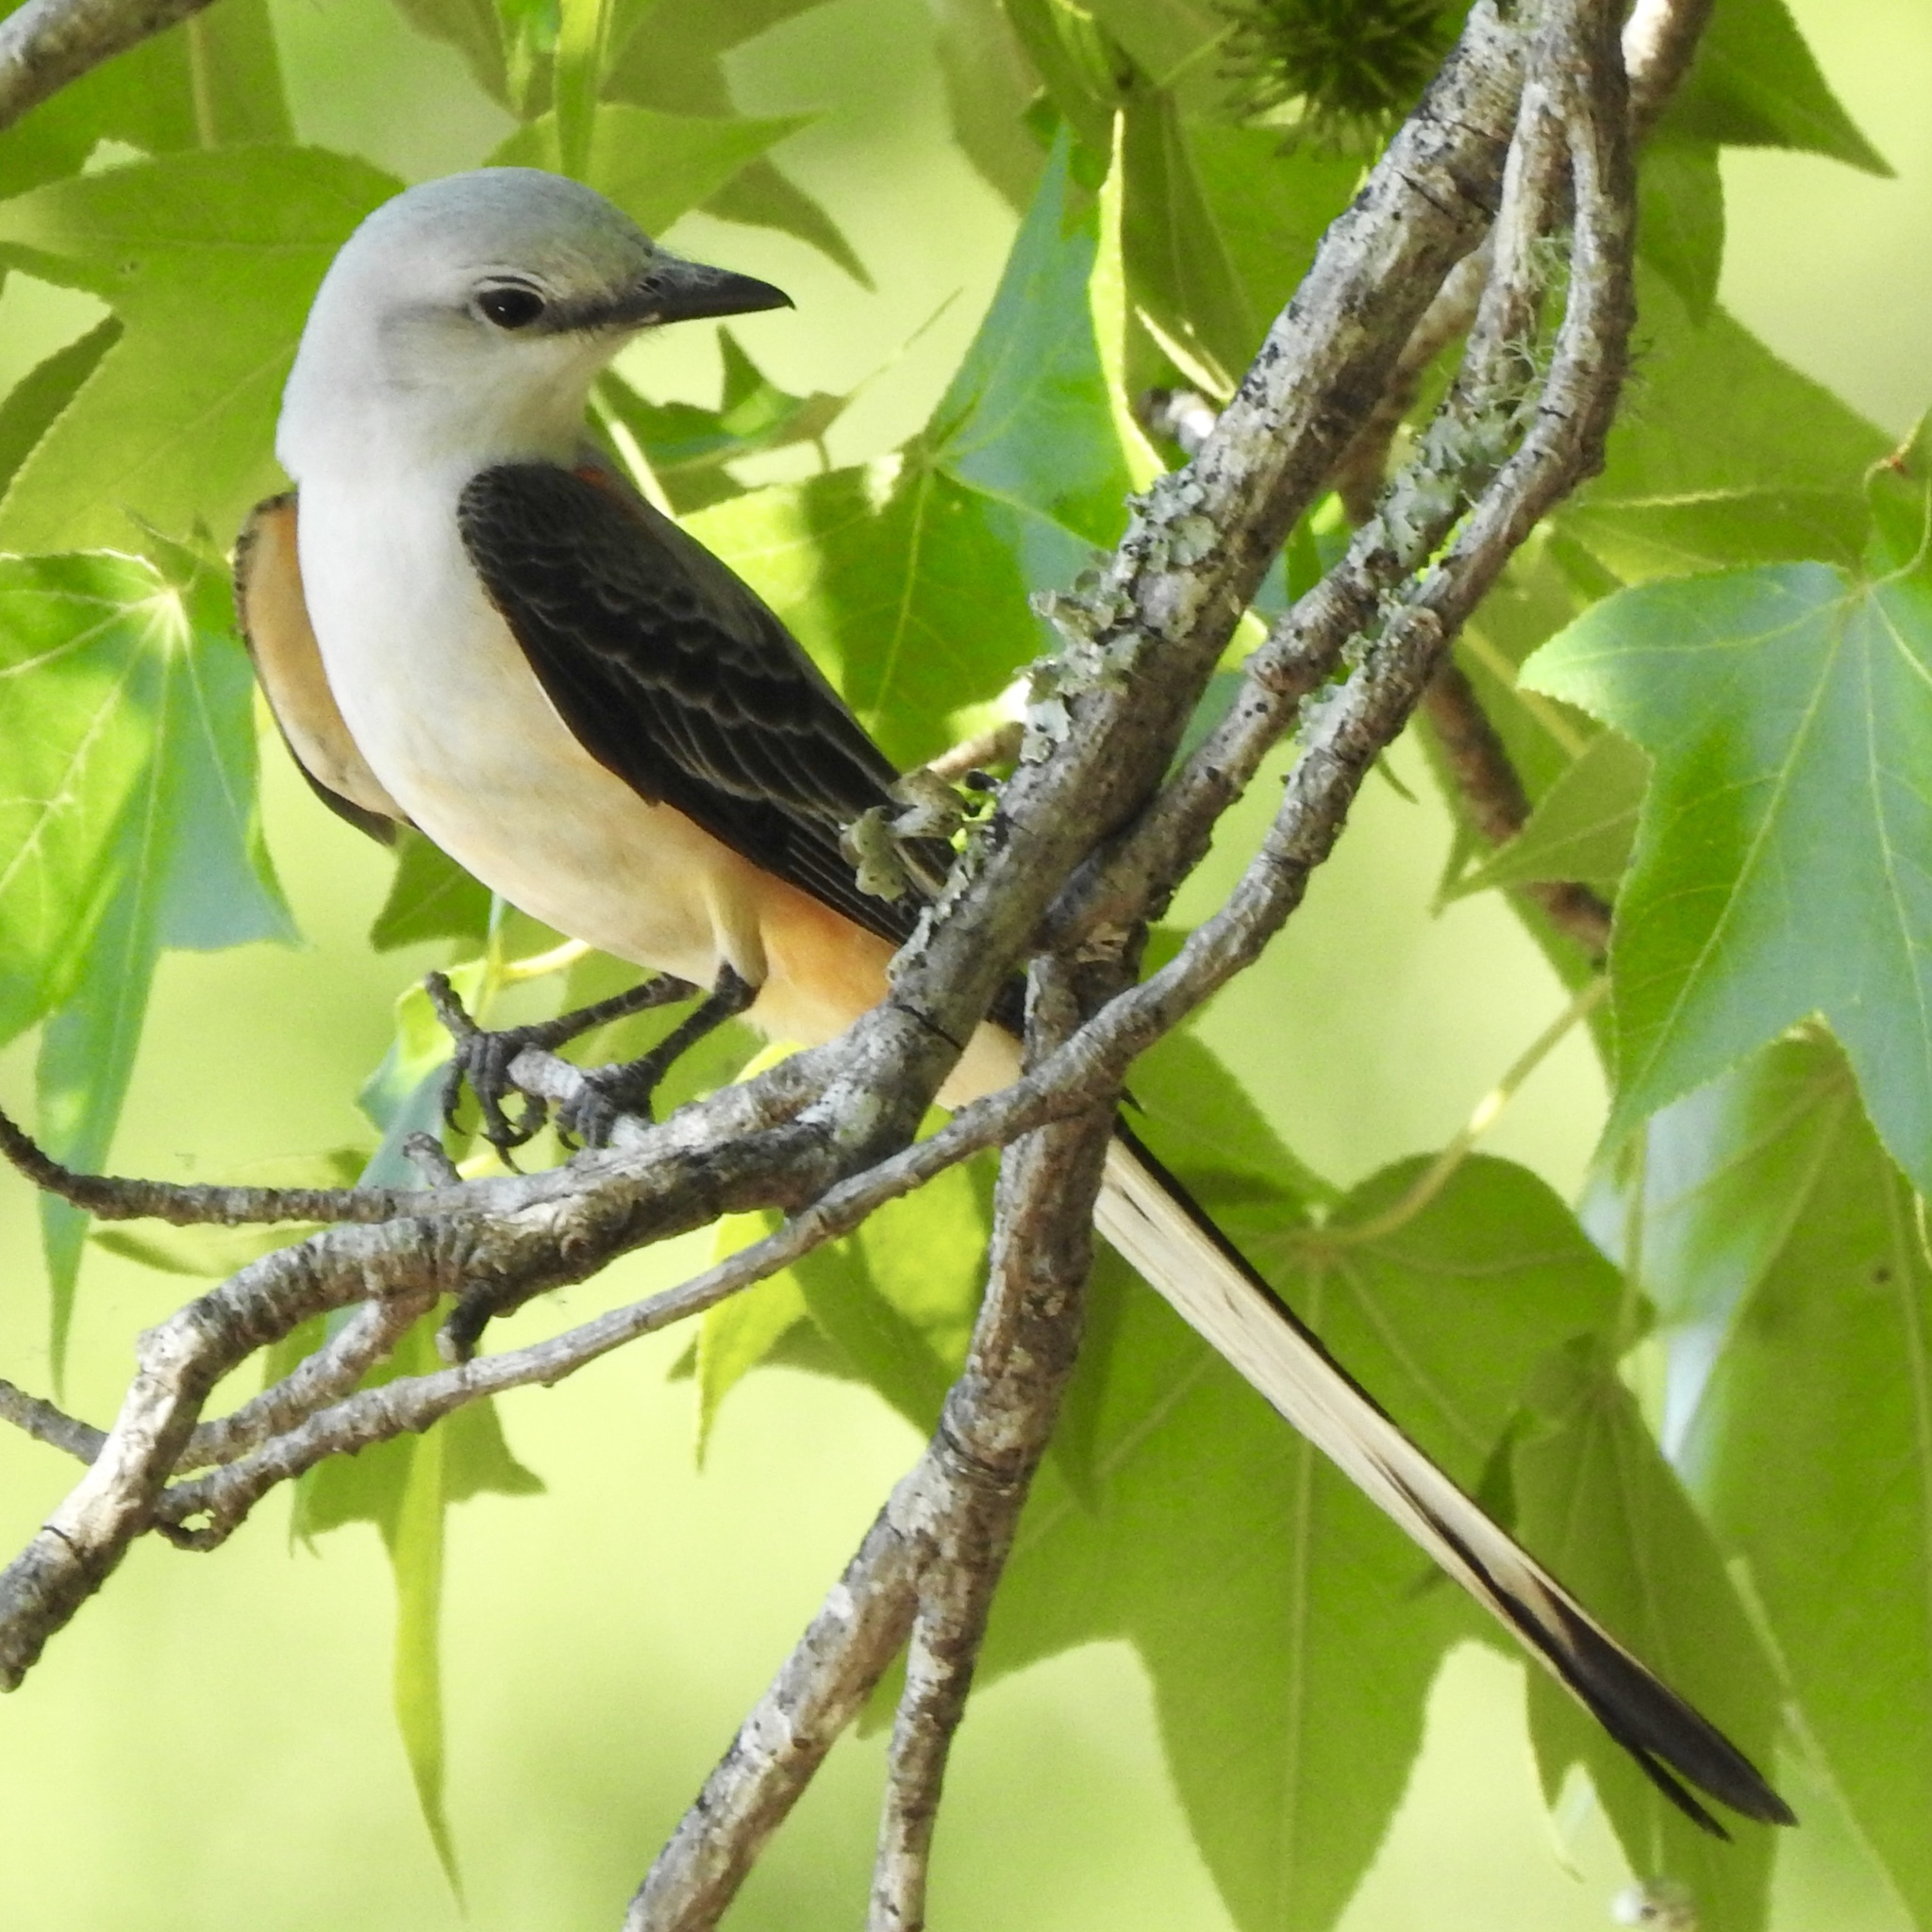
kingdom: Animalia
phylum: Chordata
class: Aves
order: Passeriformes
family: Tyrannidae
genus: Tyrannus
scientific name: Tyrannus forficatus
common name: Scissor-tailed flycatcher
